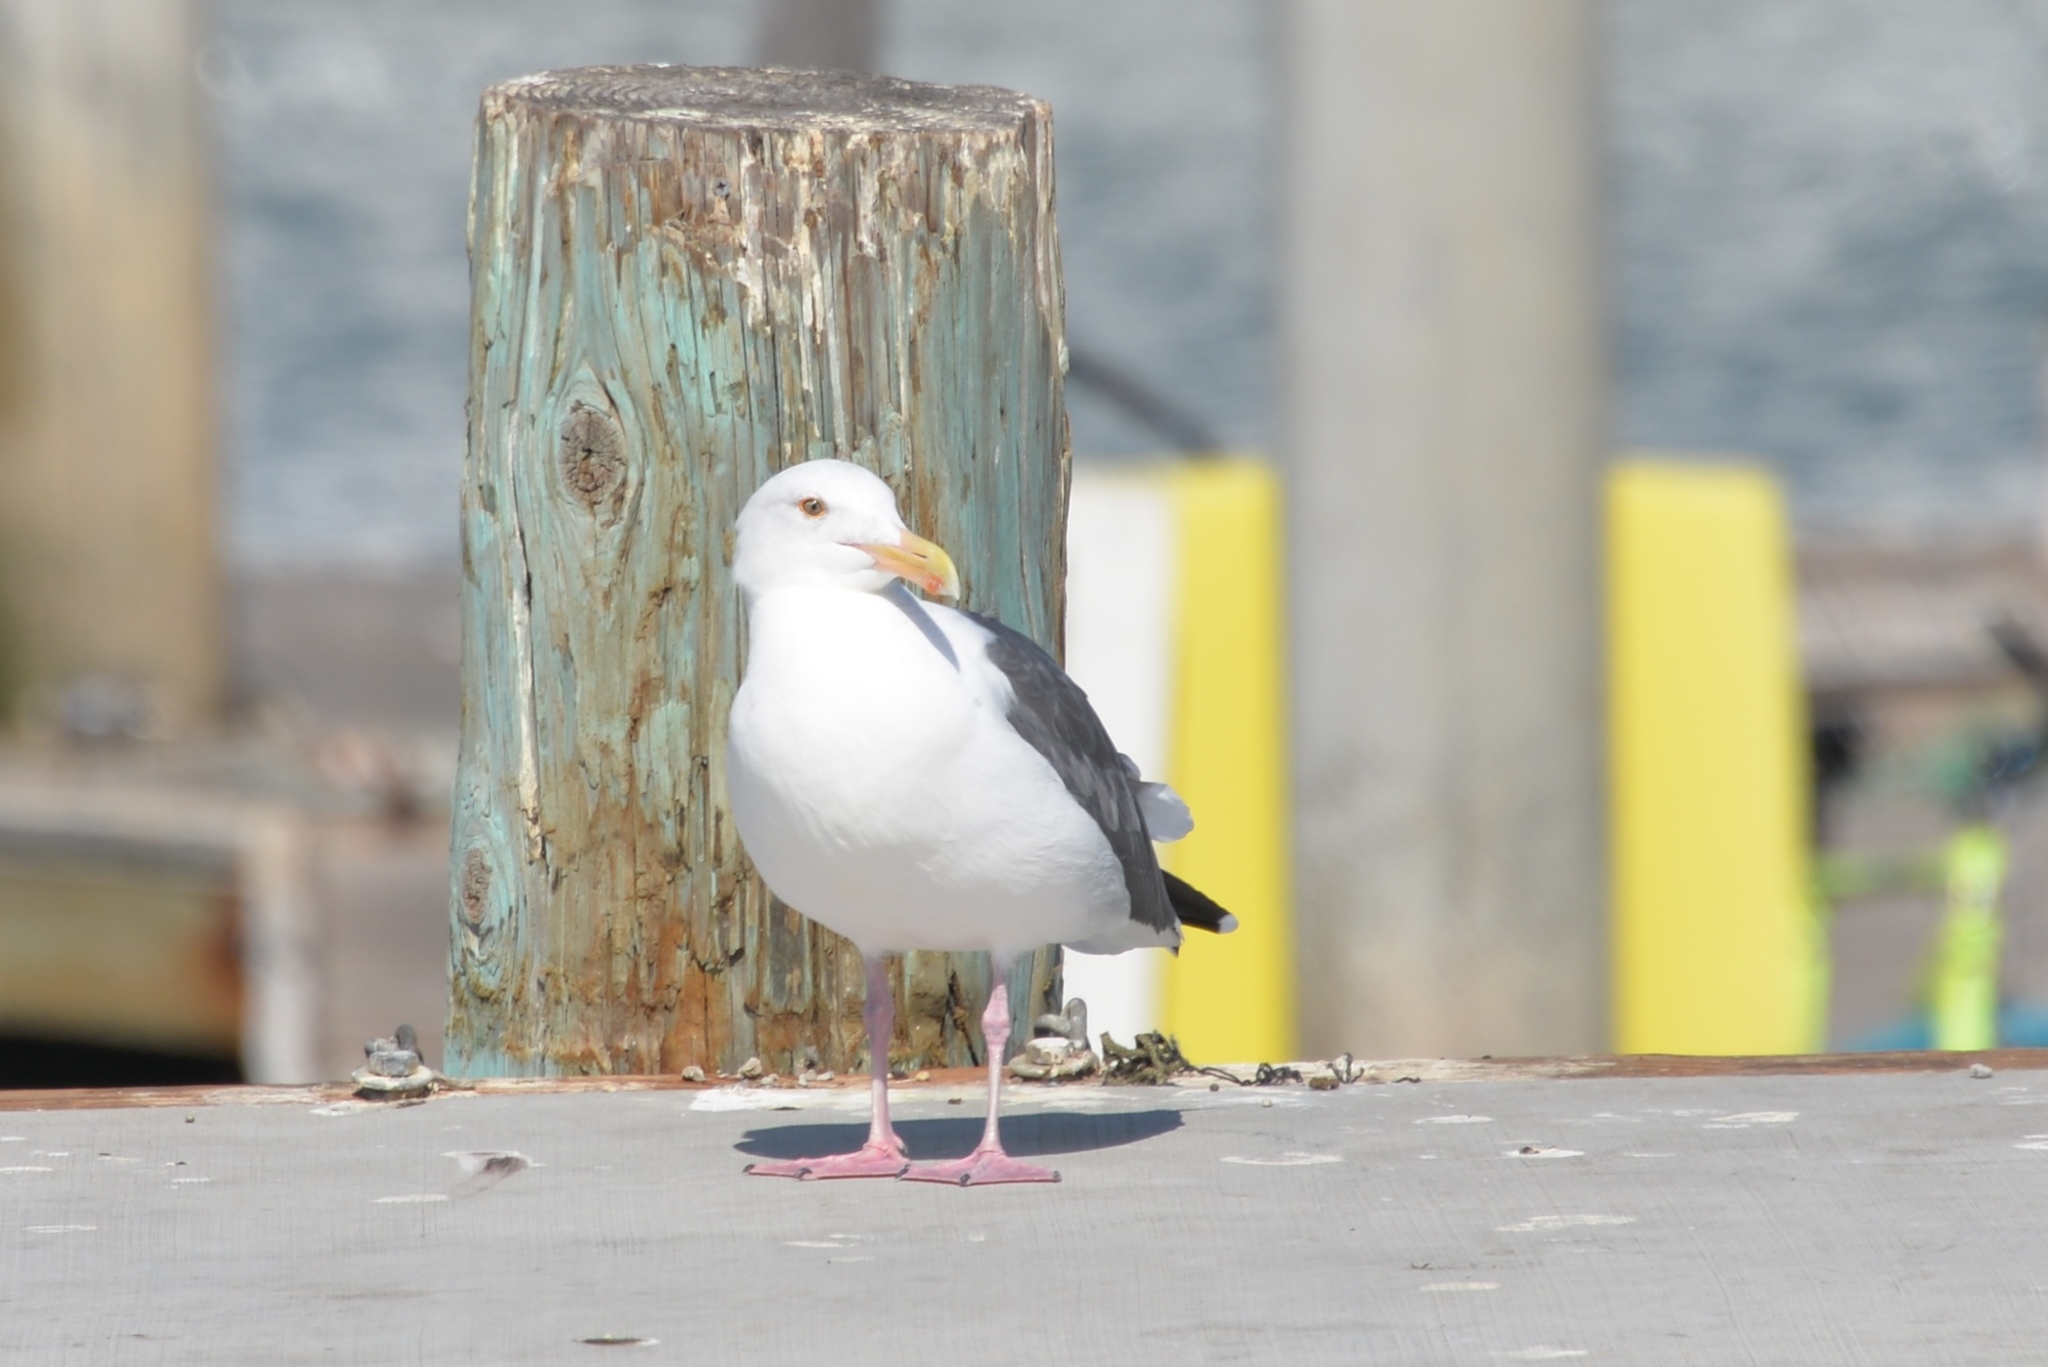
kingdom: Animalia
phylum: Chordata
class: Aves
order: Charadriiformes
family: Laridae
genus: Larus
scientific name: Larus occidentalis
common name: Western gull
